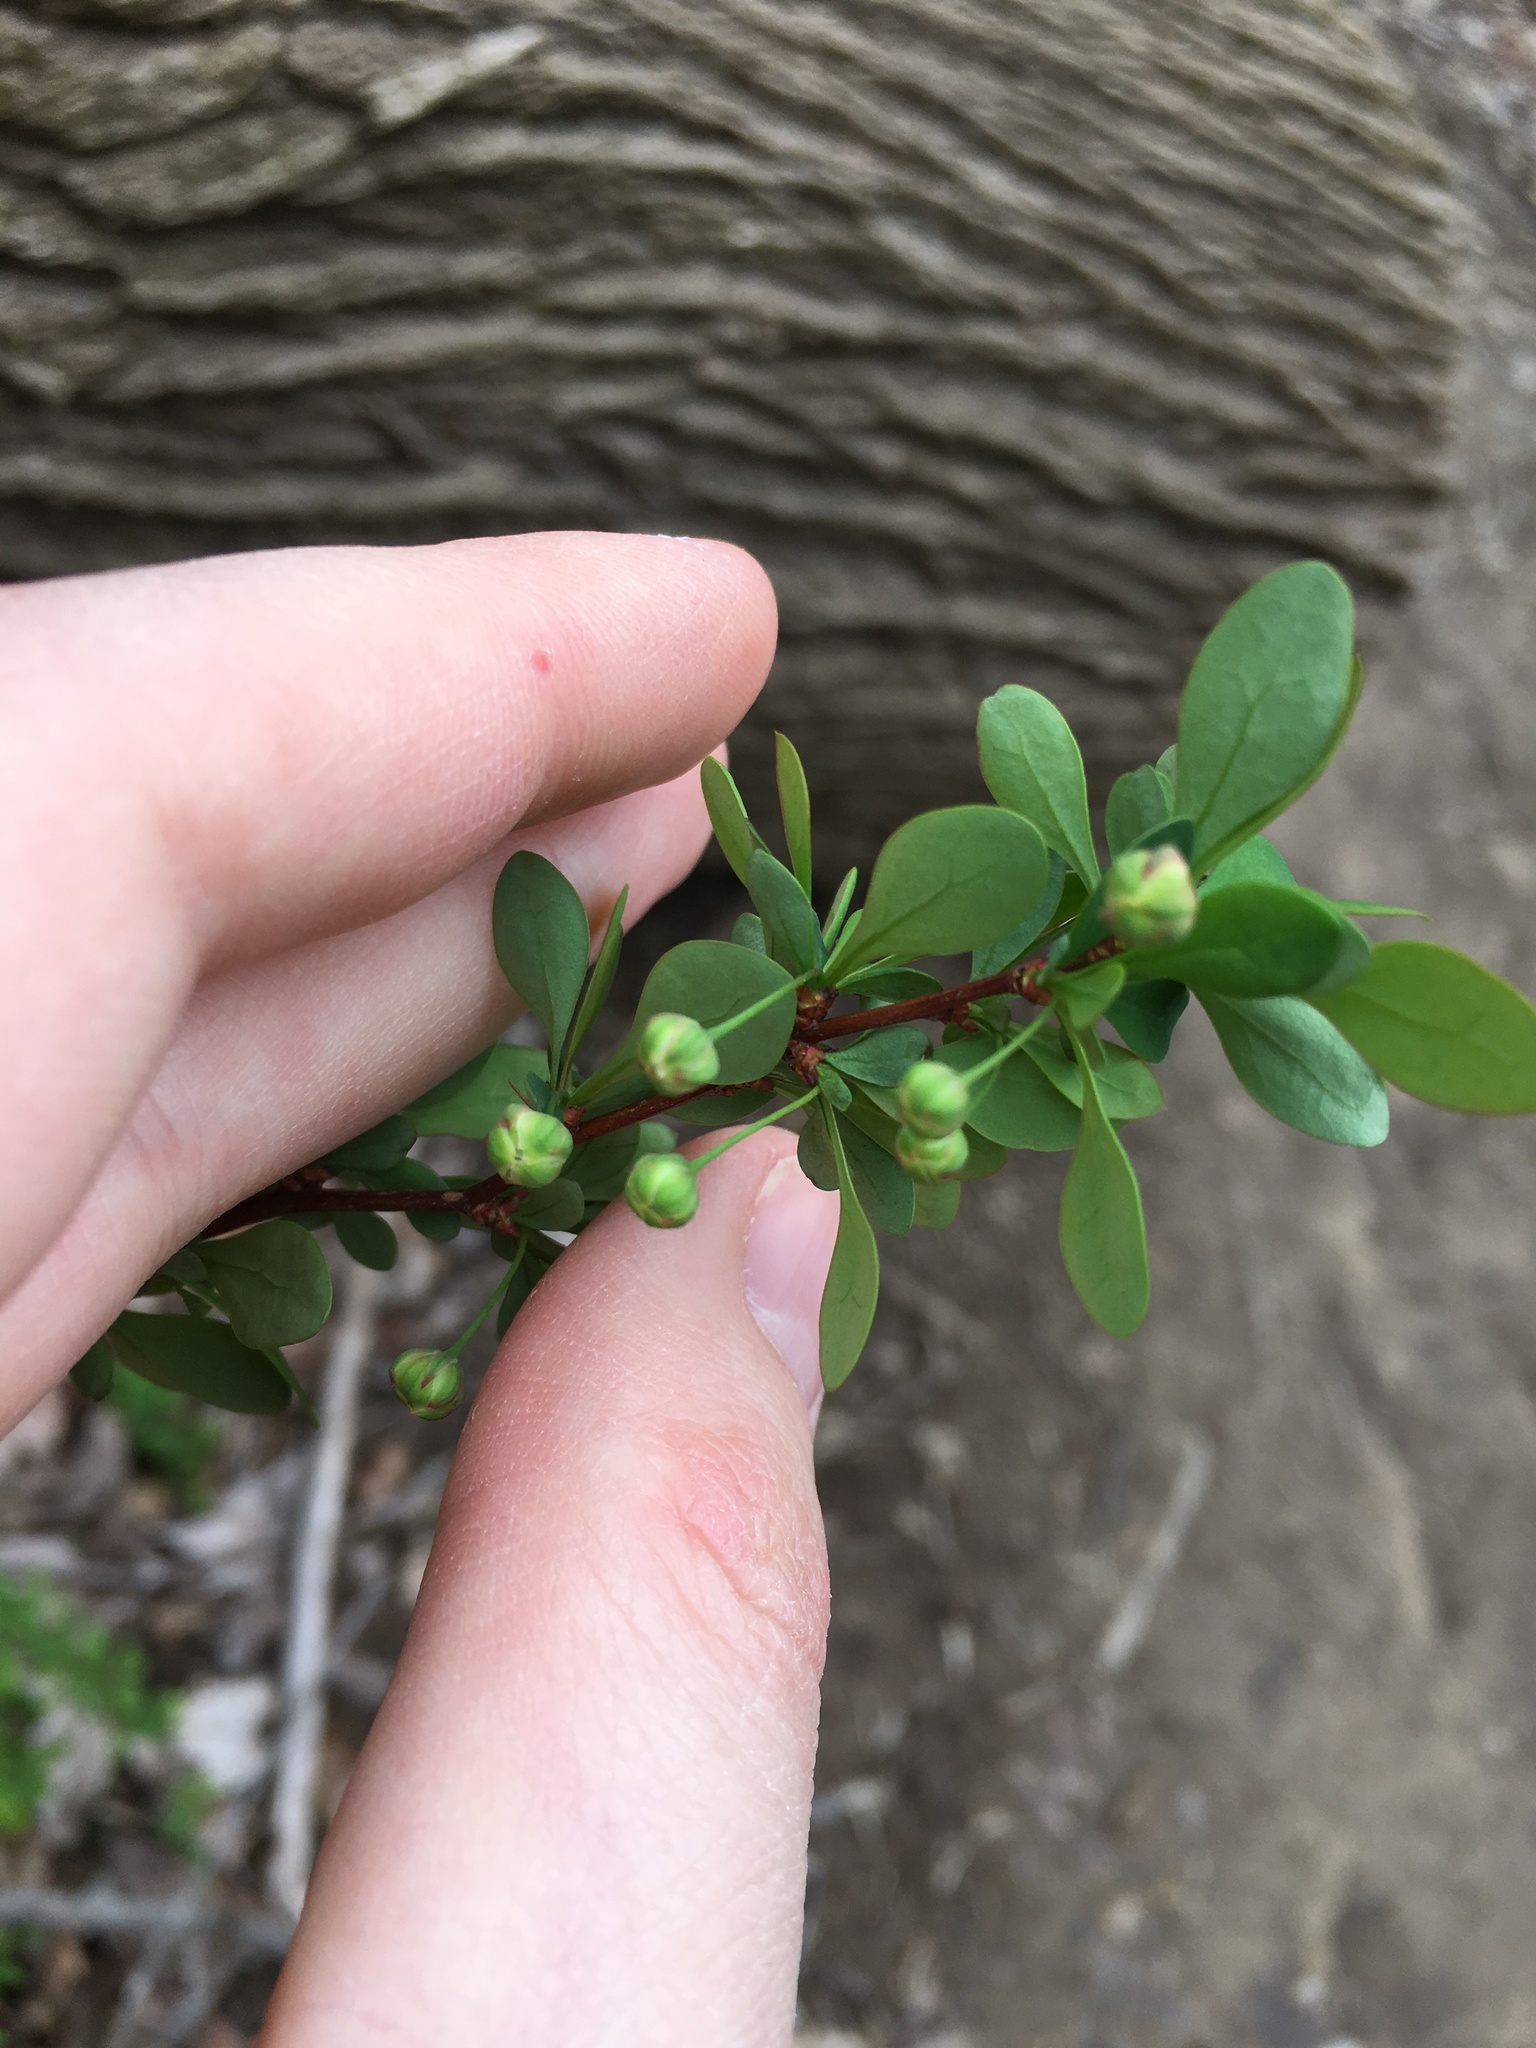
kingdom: Plantae
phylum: Tracheophyta
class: Magnoliopsida
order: Ranunculales
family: Berberidaceae
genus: Berberis
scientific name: Berberis thunbergii
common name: Japanese barberry
